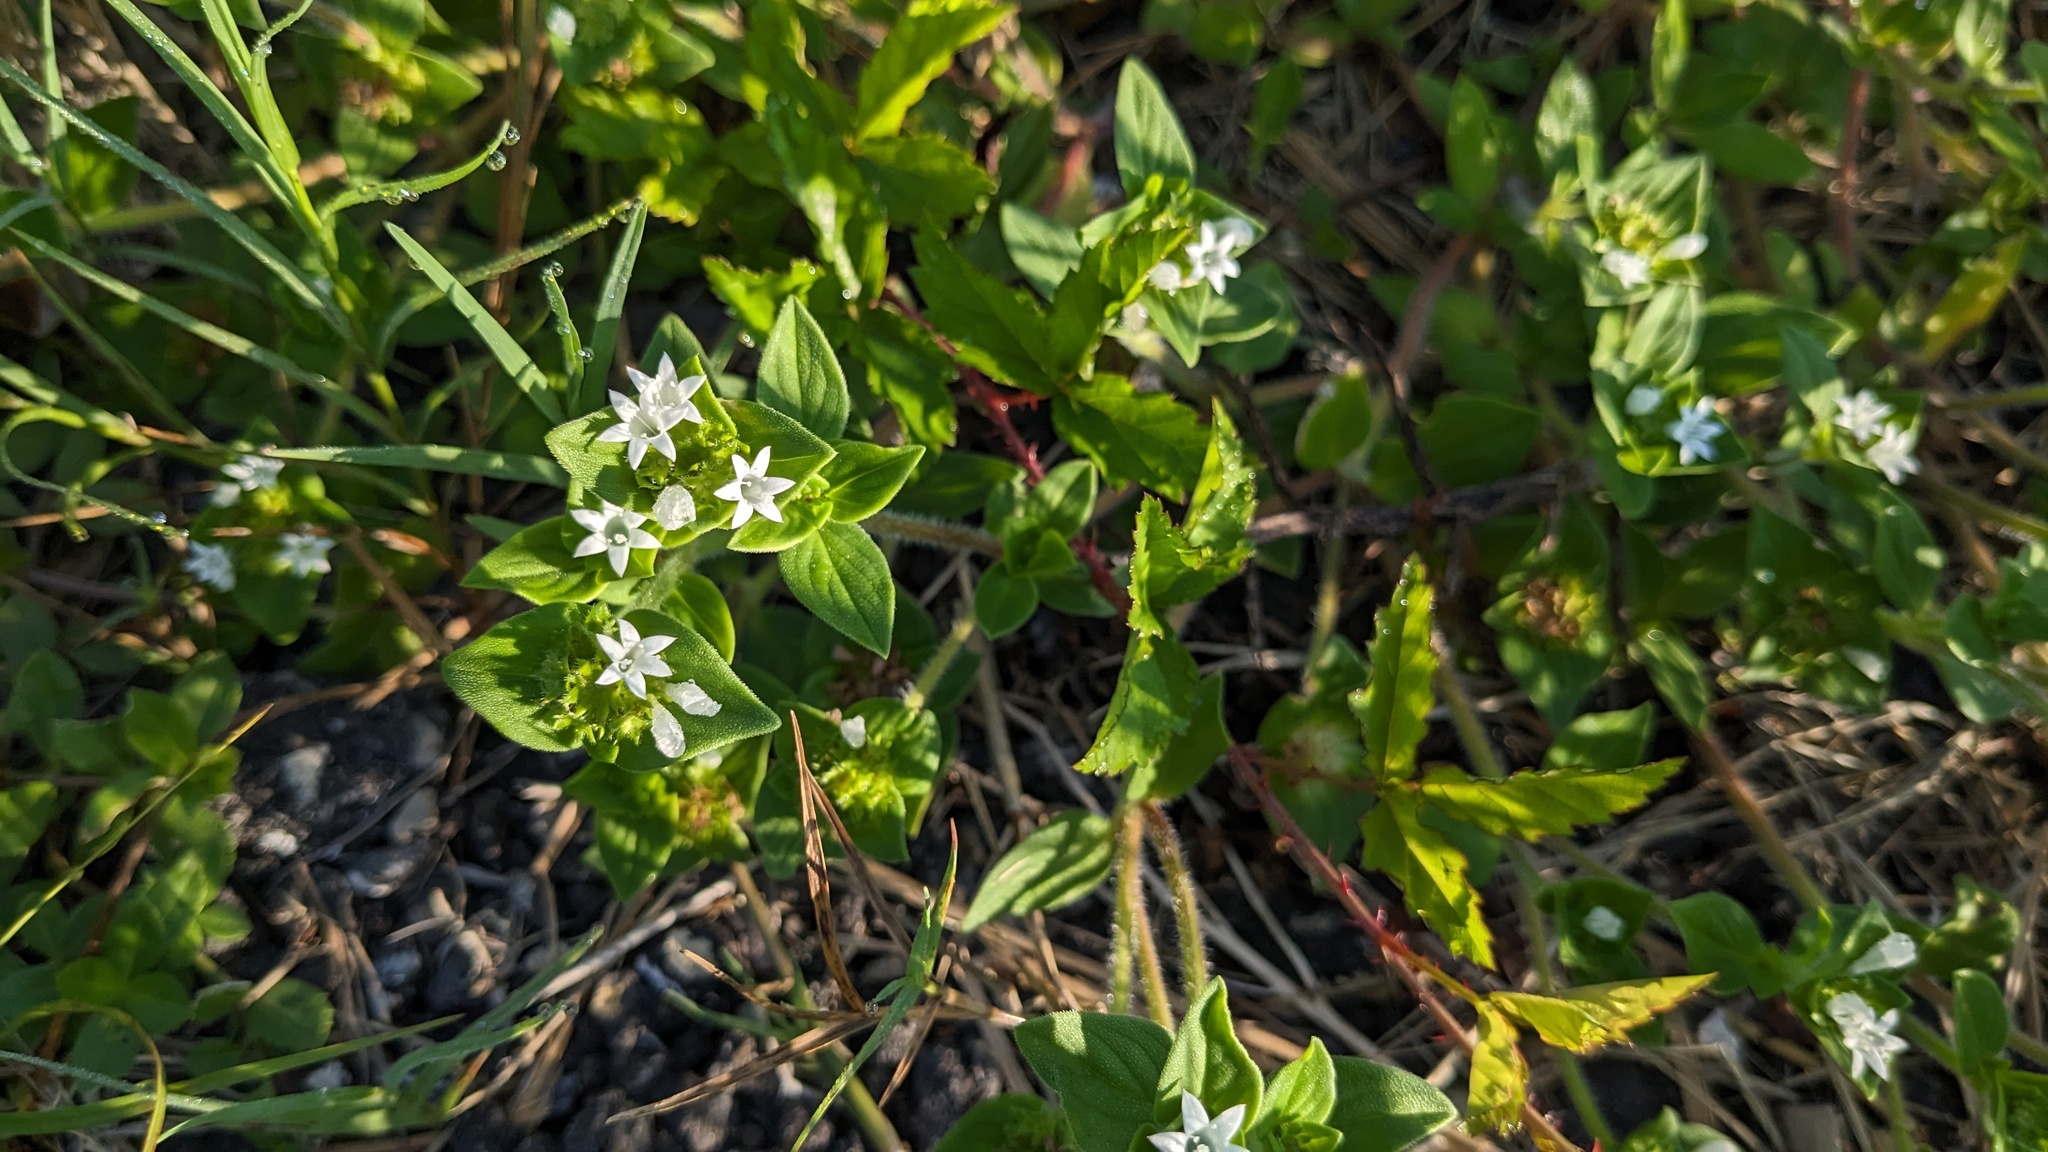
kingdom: Plantae
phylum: Tracheophyta
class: Magnoliopsida
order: Gentianales
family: Rubiaceae
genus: Richardia
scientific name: Richardia brasiliensis
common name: Tropical mexican clover
